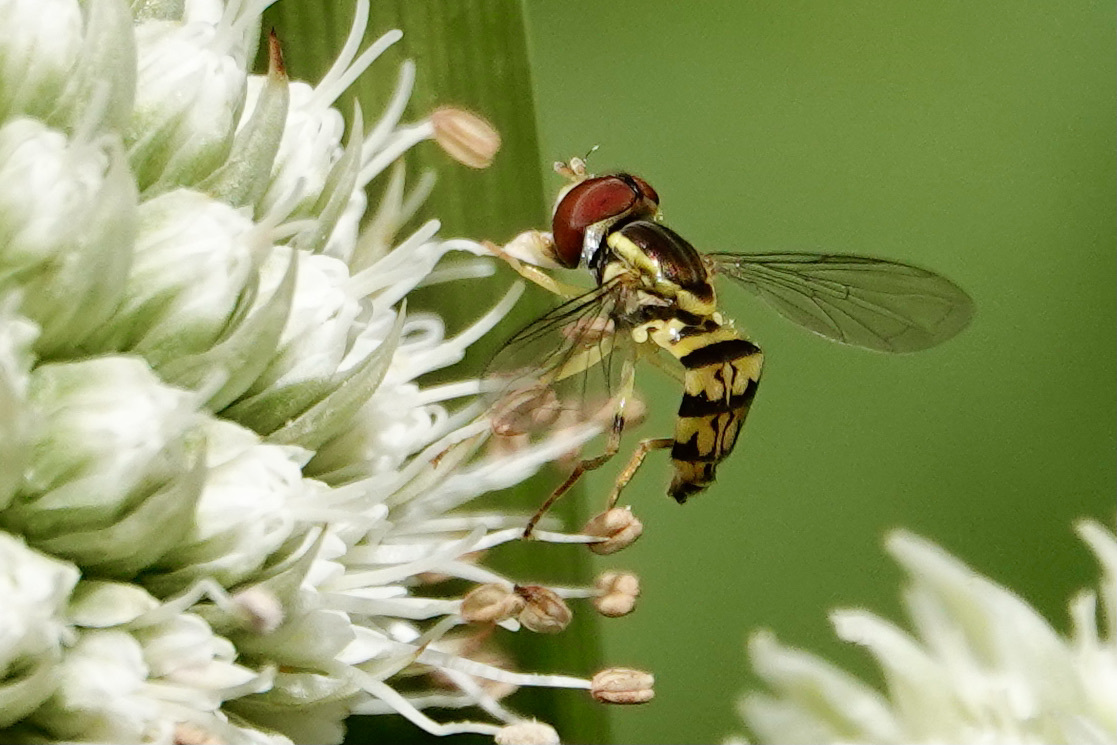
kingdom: Animalia
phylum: Arthropoda
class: Insecta
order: Diptera
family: Syrphidae
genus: Toxomerus
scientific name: Toxomerus geminatus
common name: Eastern calligrapher
